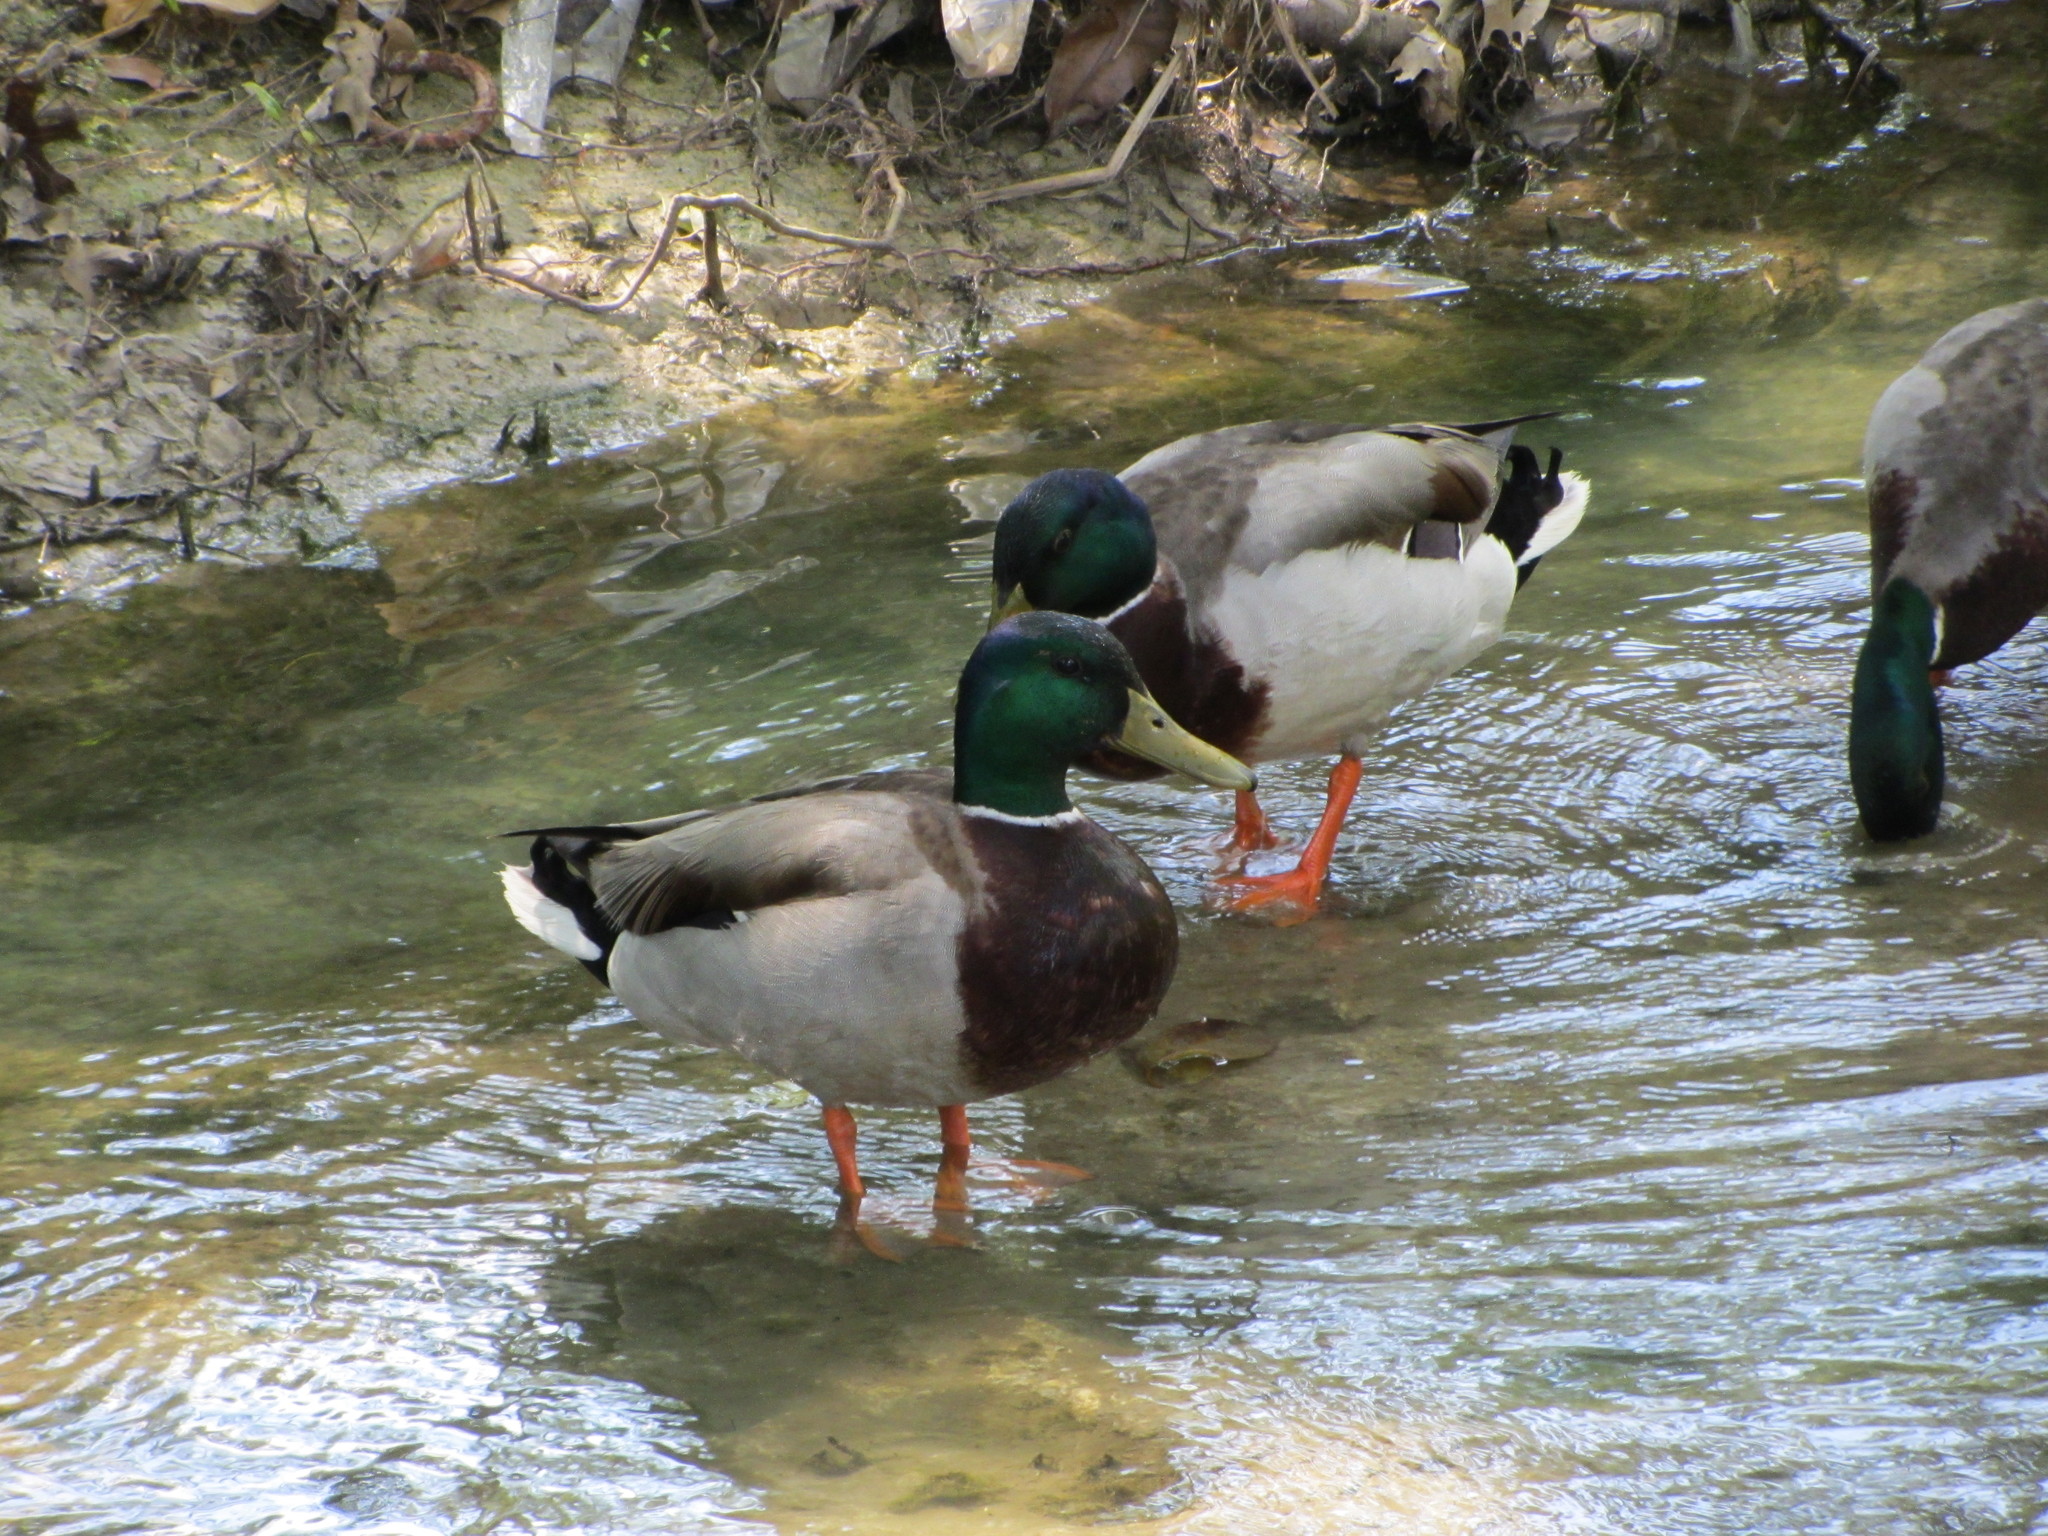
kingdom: Animalia
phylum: Chordata
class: Aves
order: Anseriformes
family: Anatidae
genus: Anas
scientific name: Anas platyrhynchos
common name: Mallard
